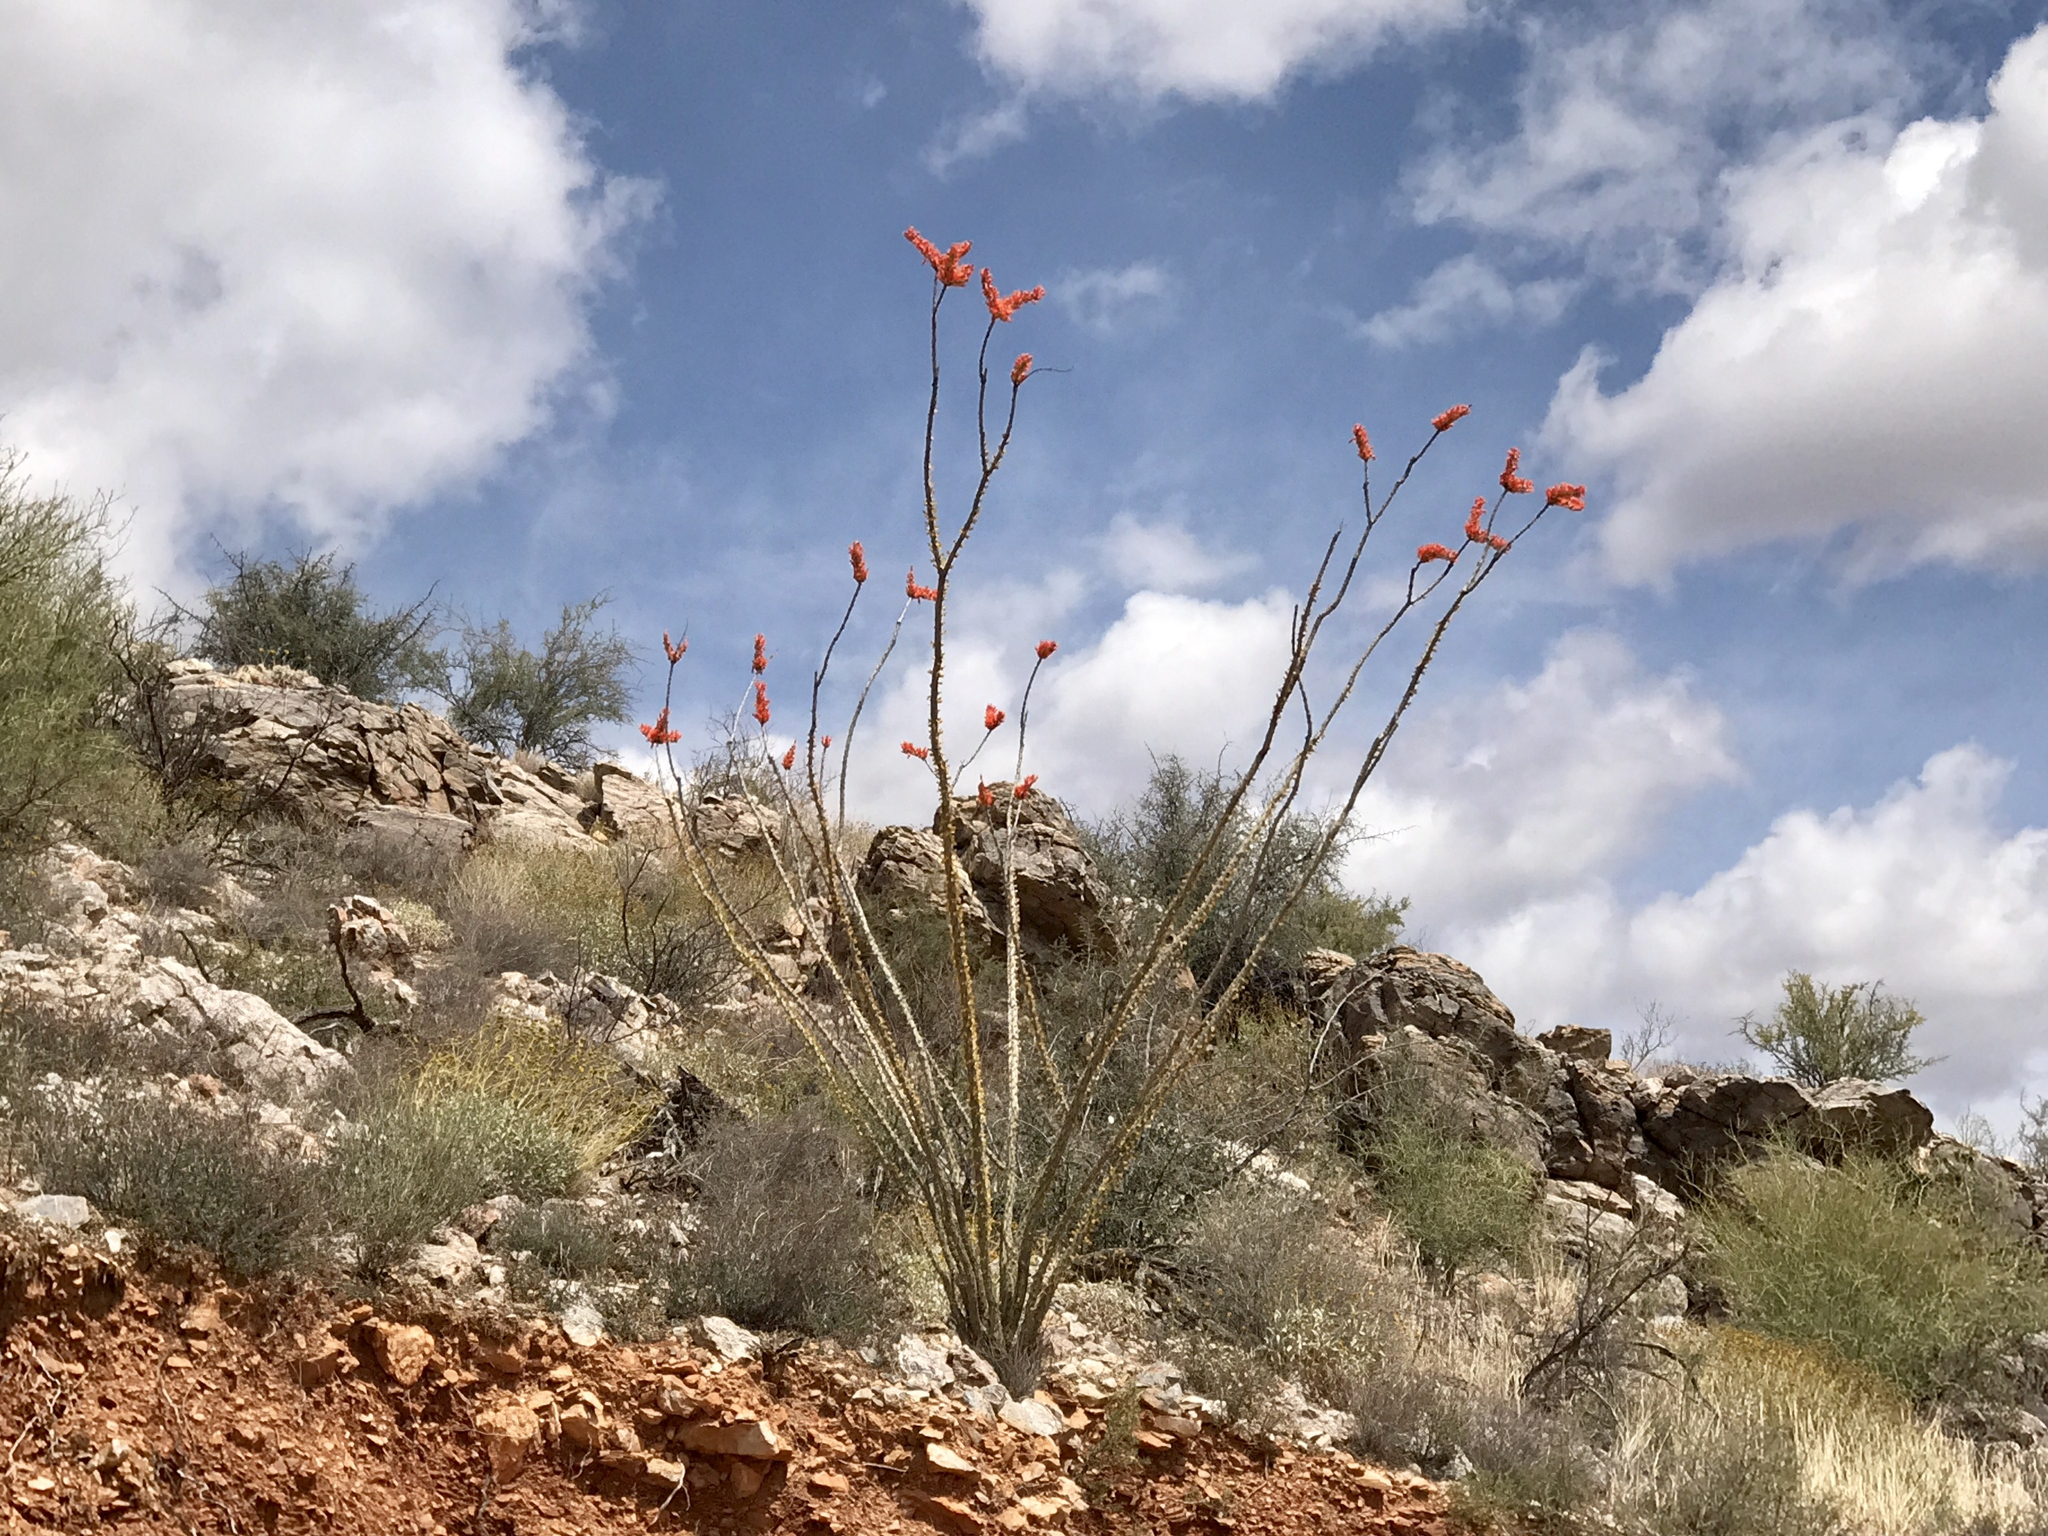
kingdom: Plantae
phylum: Tracheophyta
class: Magnoliopsida
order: Ericales
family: Fouquieriaceae
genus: Fouquieria
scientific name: Fouquieria splendens
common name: Vine-cactus
